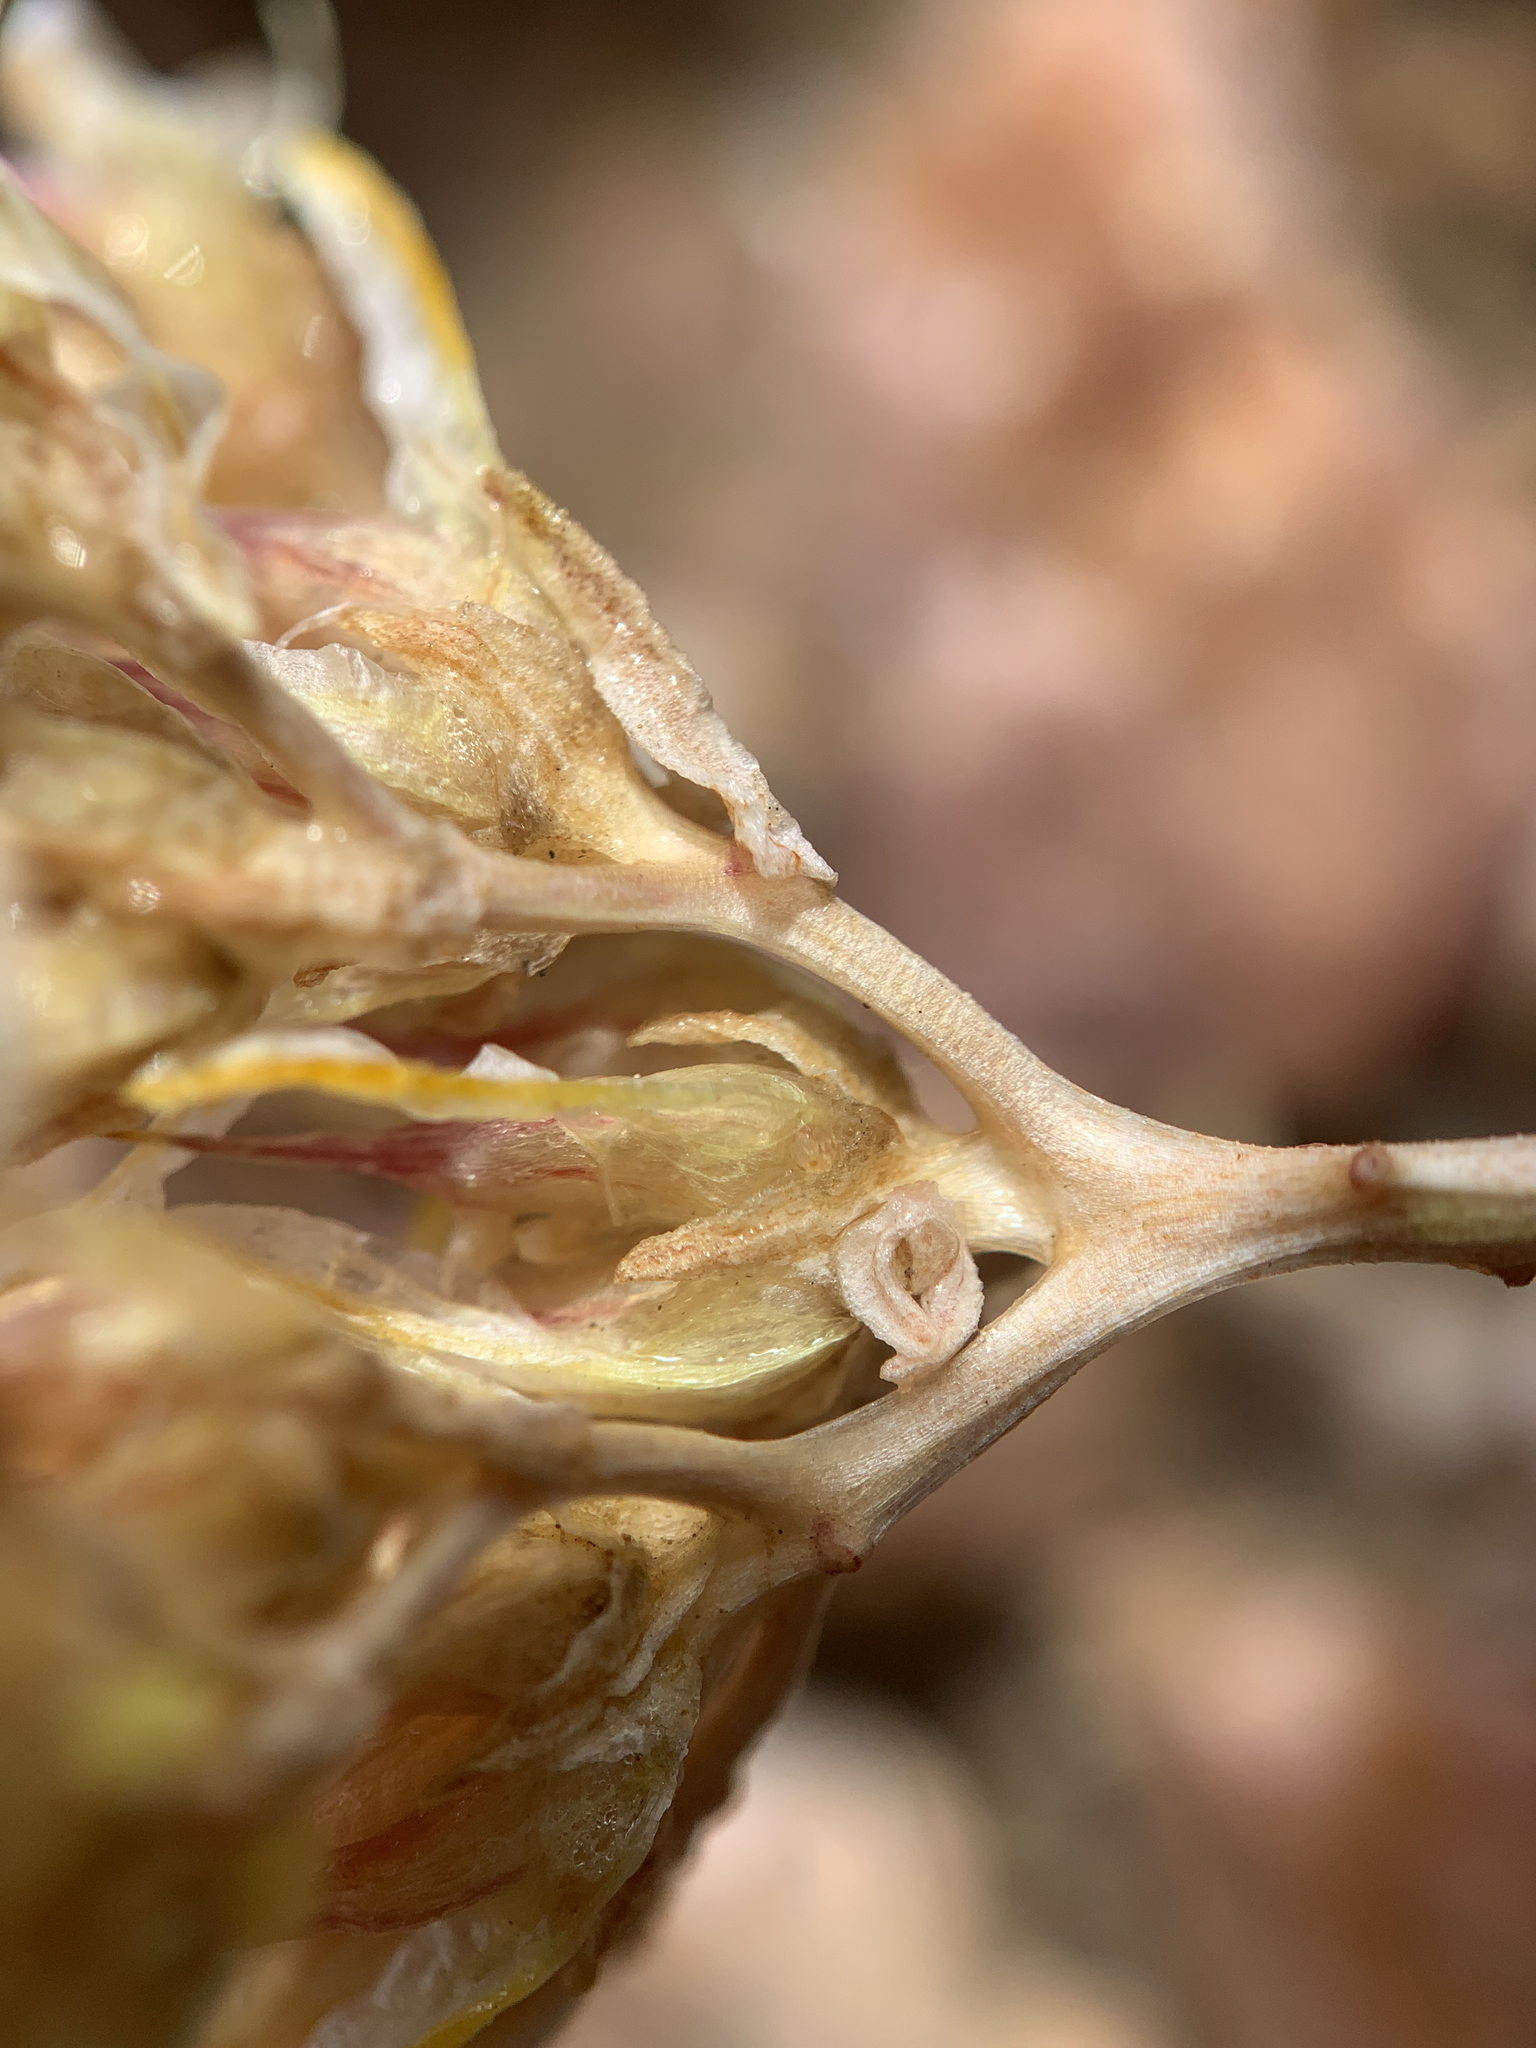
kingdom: Plantae
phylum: Tracheophyta
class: Magnoliopsida
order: Saxifragales
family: Crassulaceae
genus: Sedum
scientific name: Sedum lanceolatum
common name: Common stonecrop
